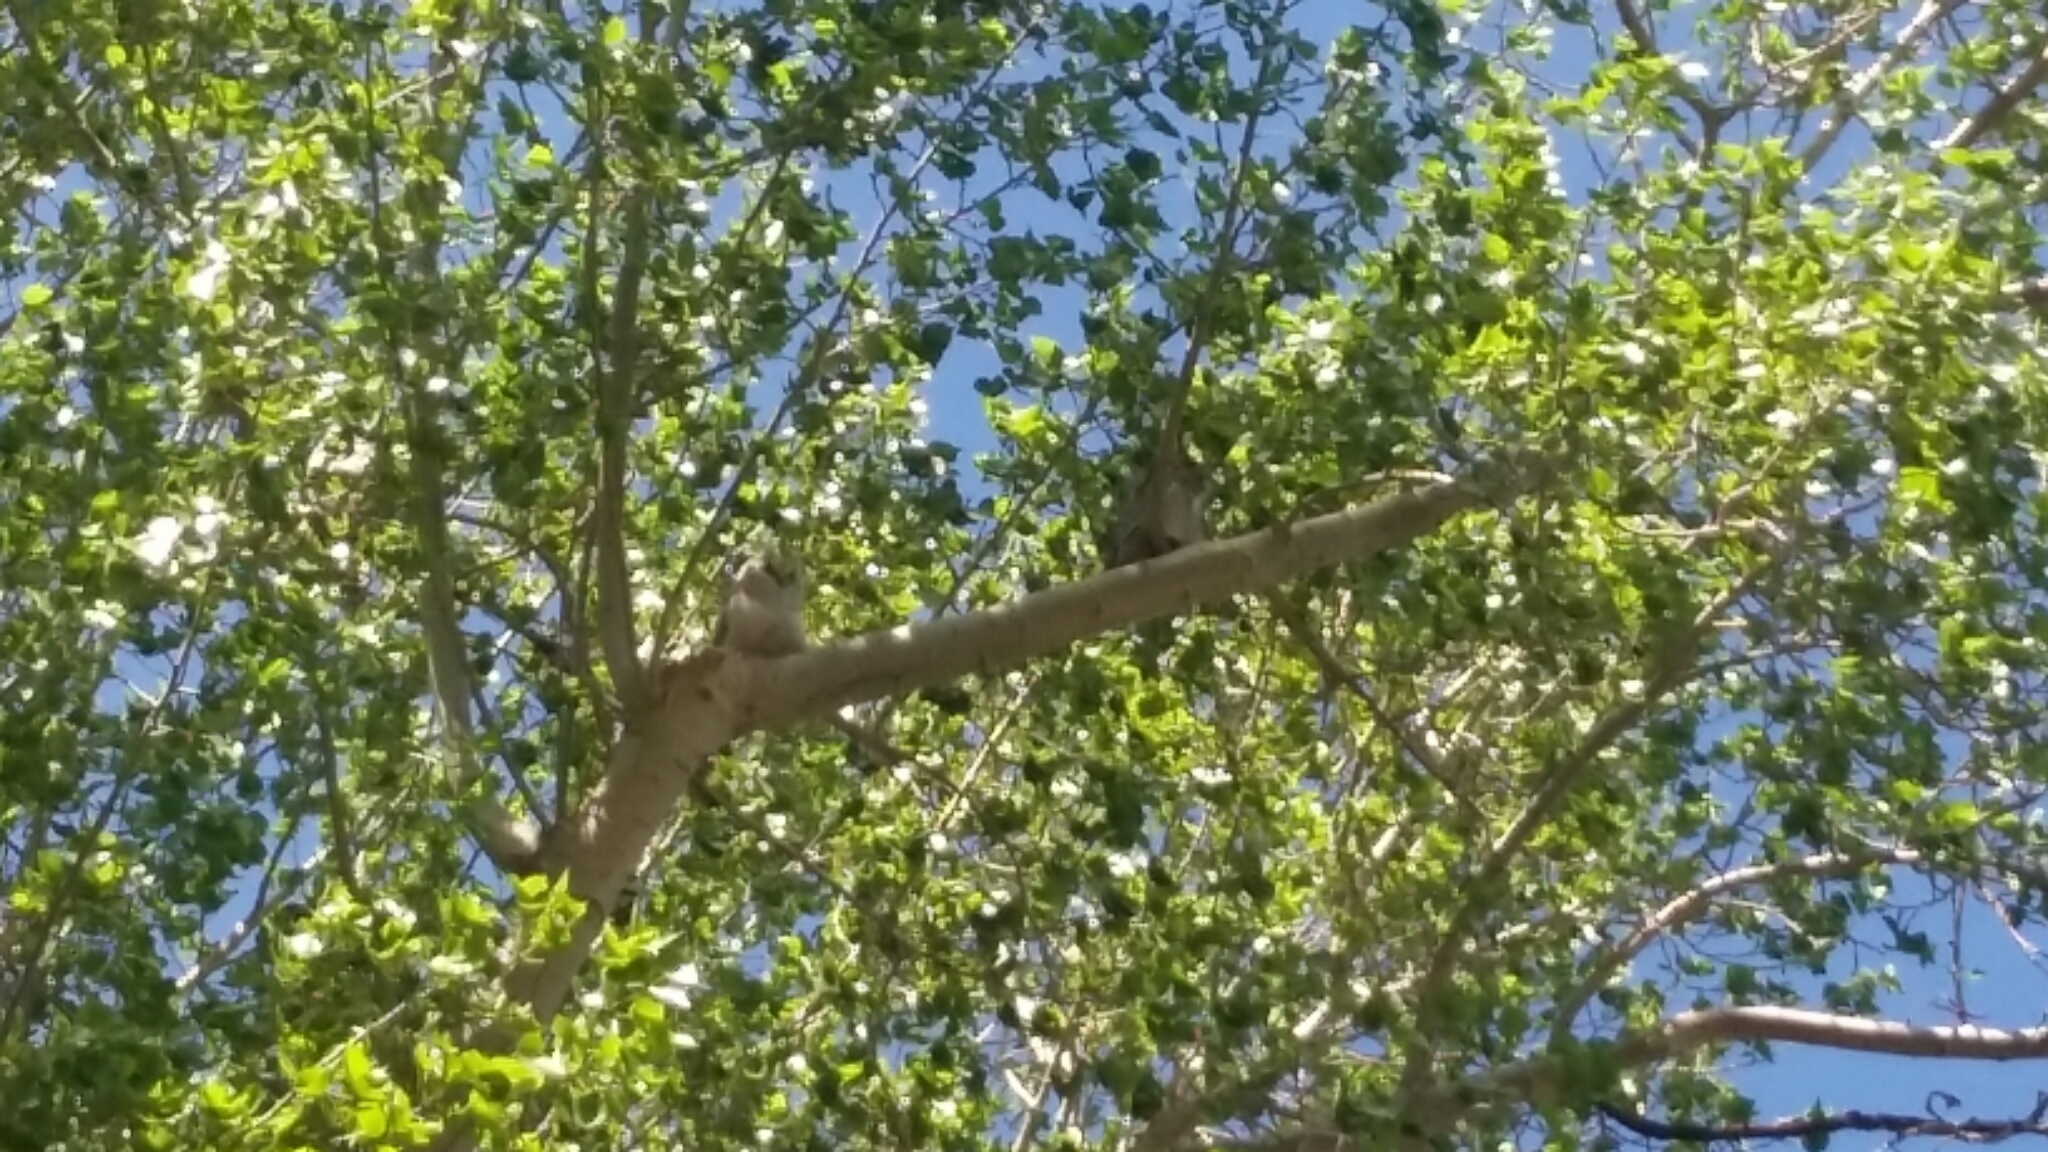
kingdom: Animalia
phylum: Chordata
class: Aves
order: Strigiformes
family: Strigidae
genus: Bubo
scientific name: Bubo virginianus
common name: Great horned owl
